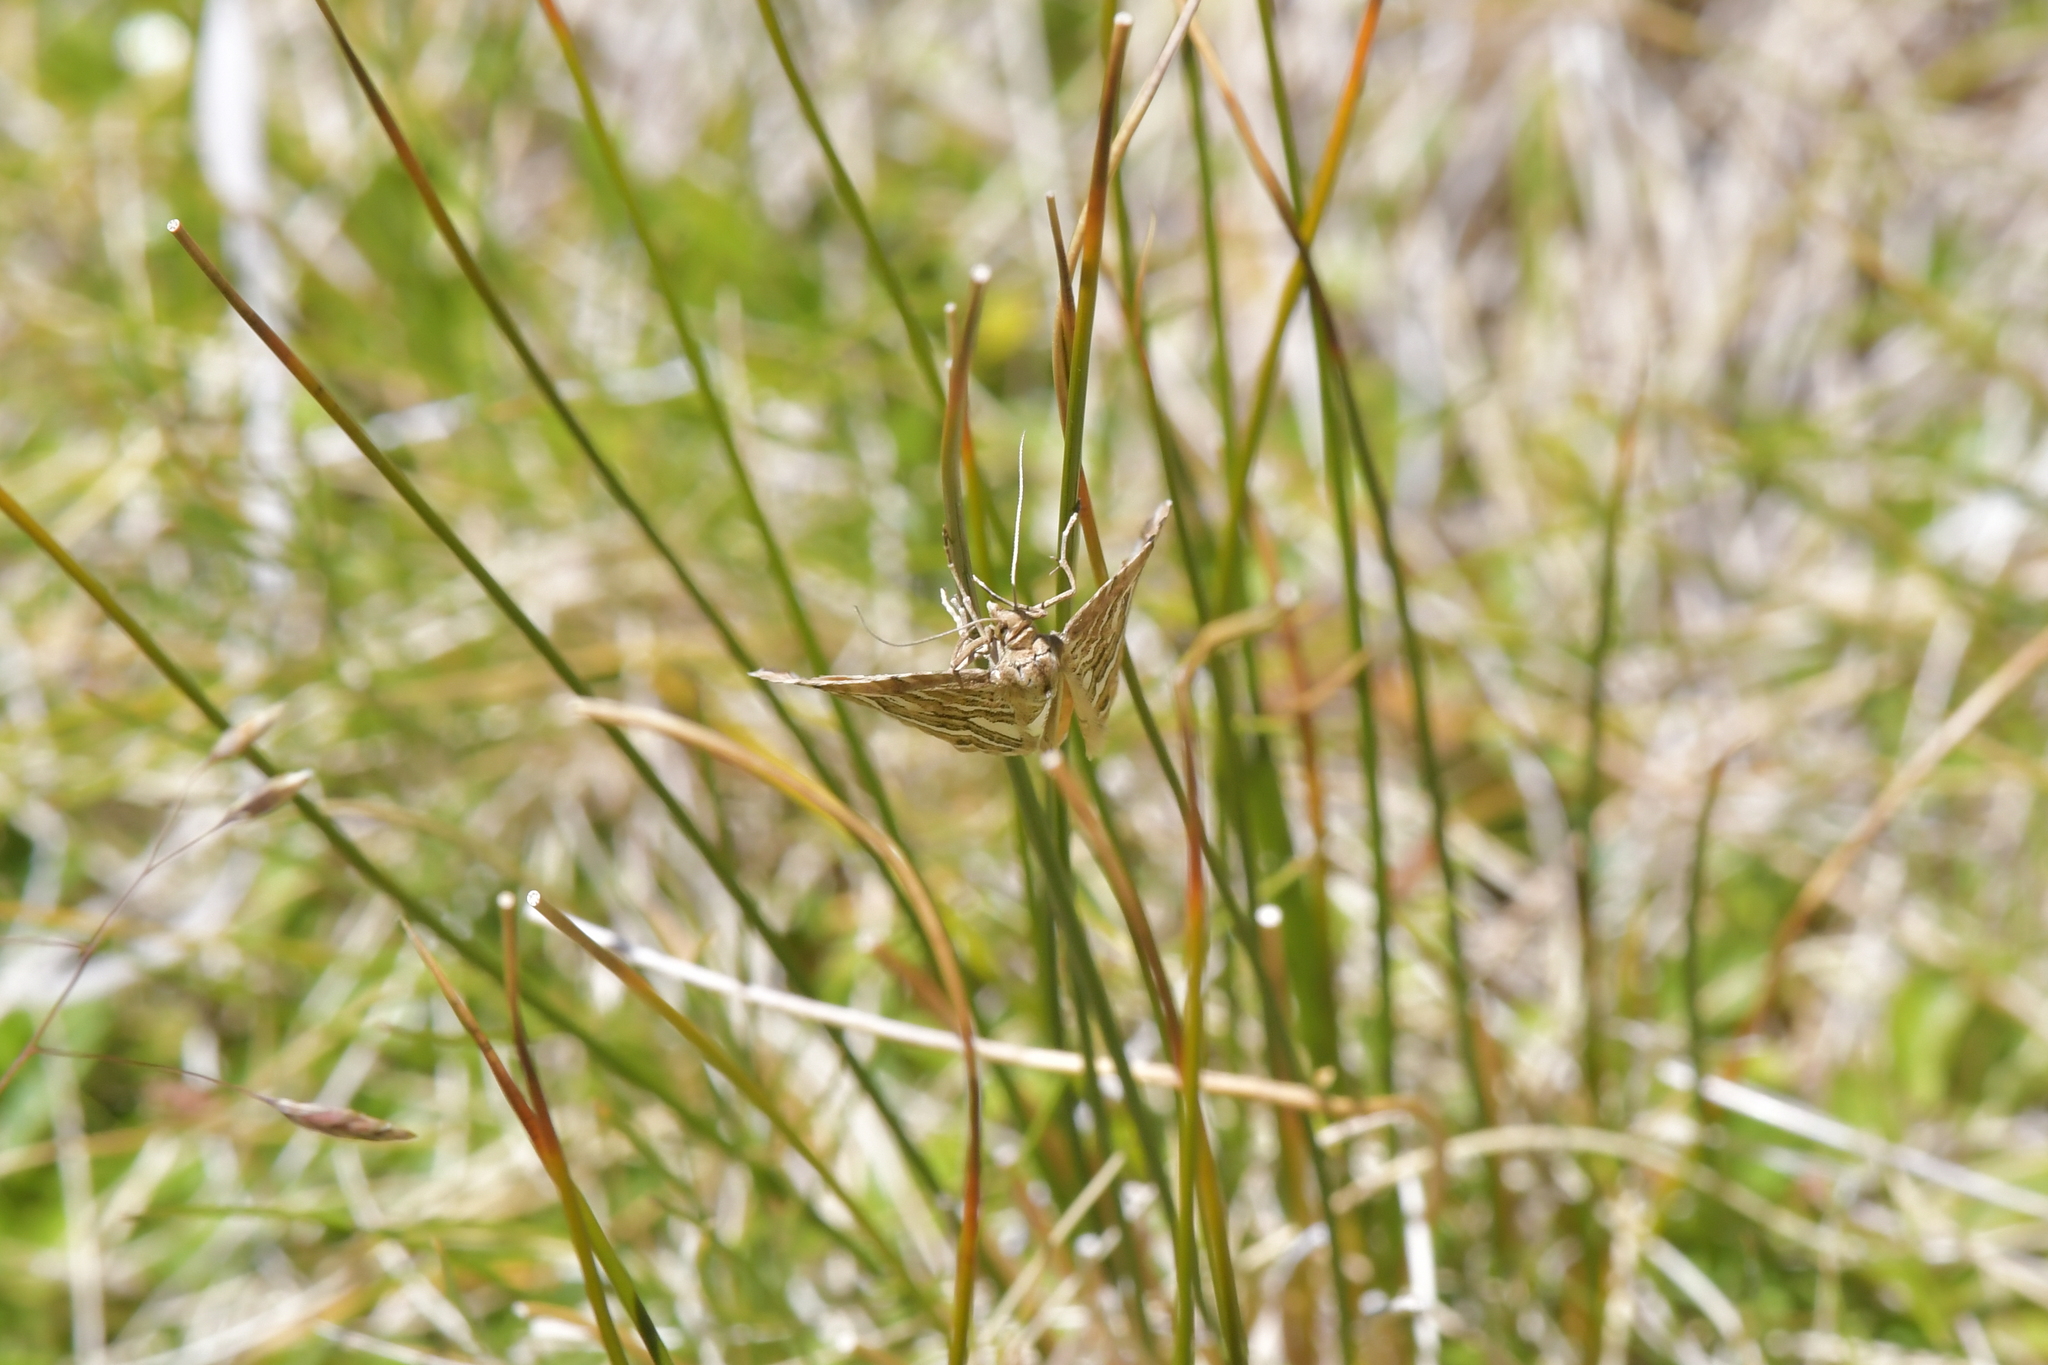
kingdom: Animalia
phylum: Arthropoda
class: Insecta
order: Lepidoptera
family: Geometridae
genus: Asaphodes
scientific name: Asaphodes clarata
